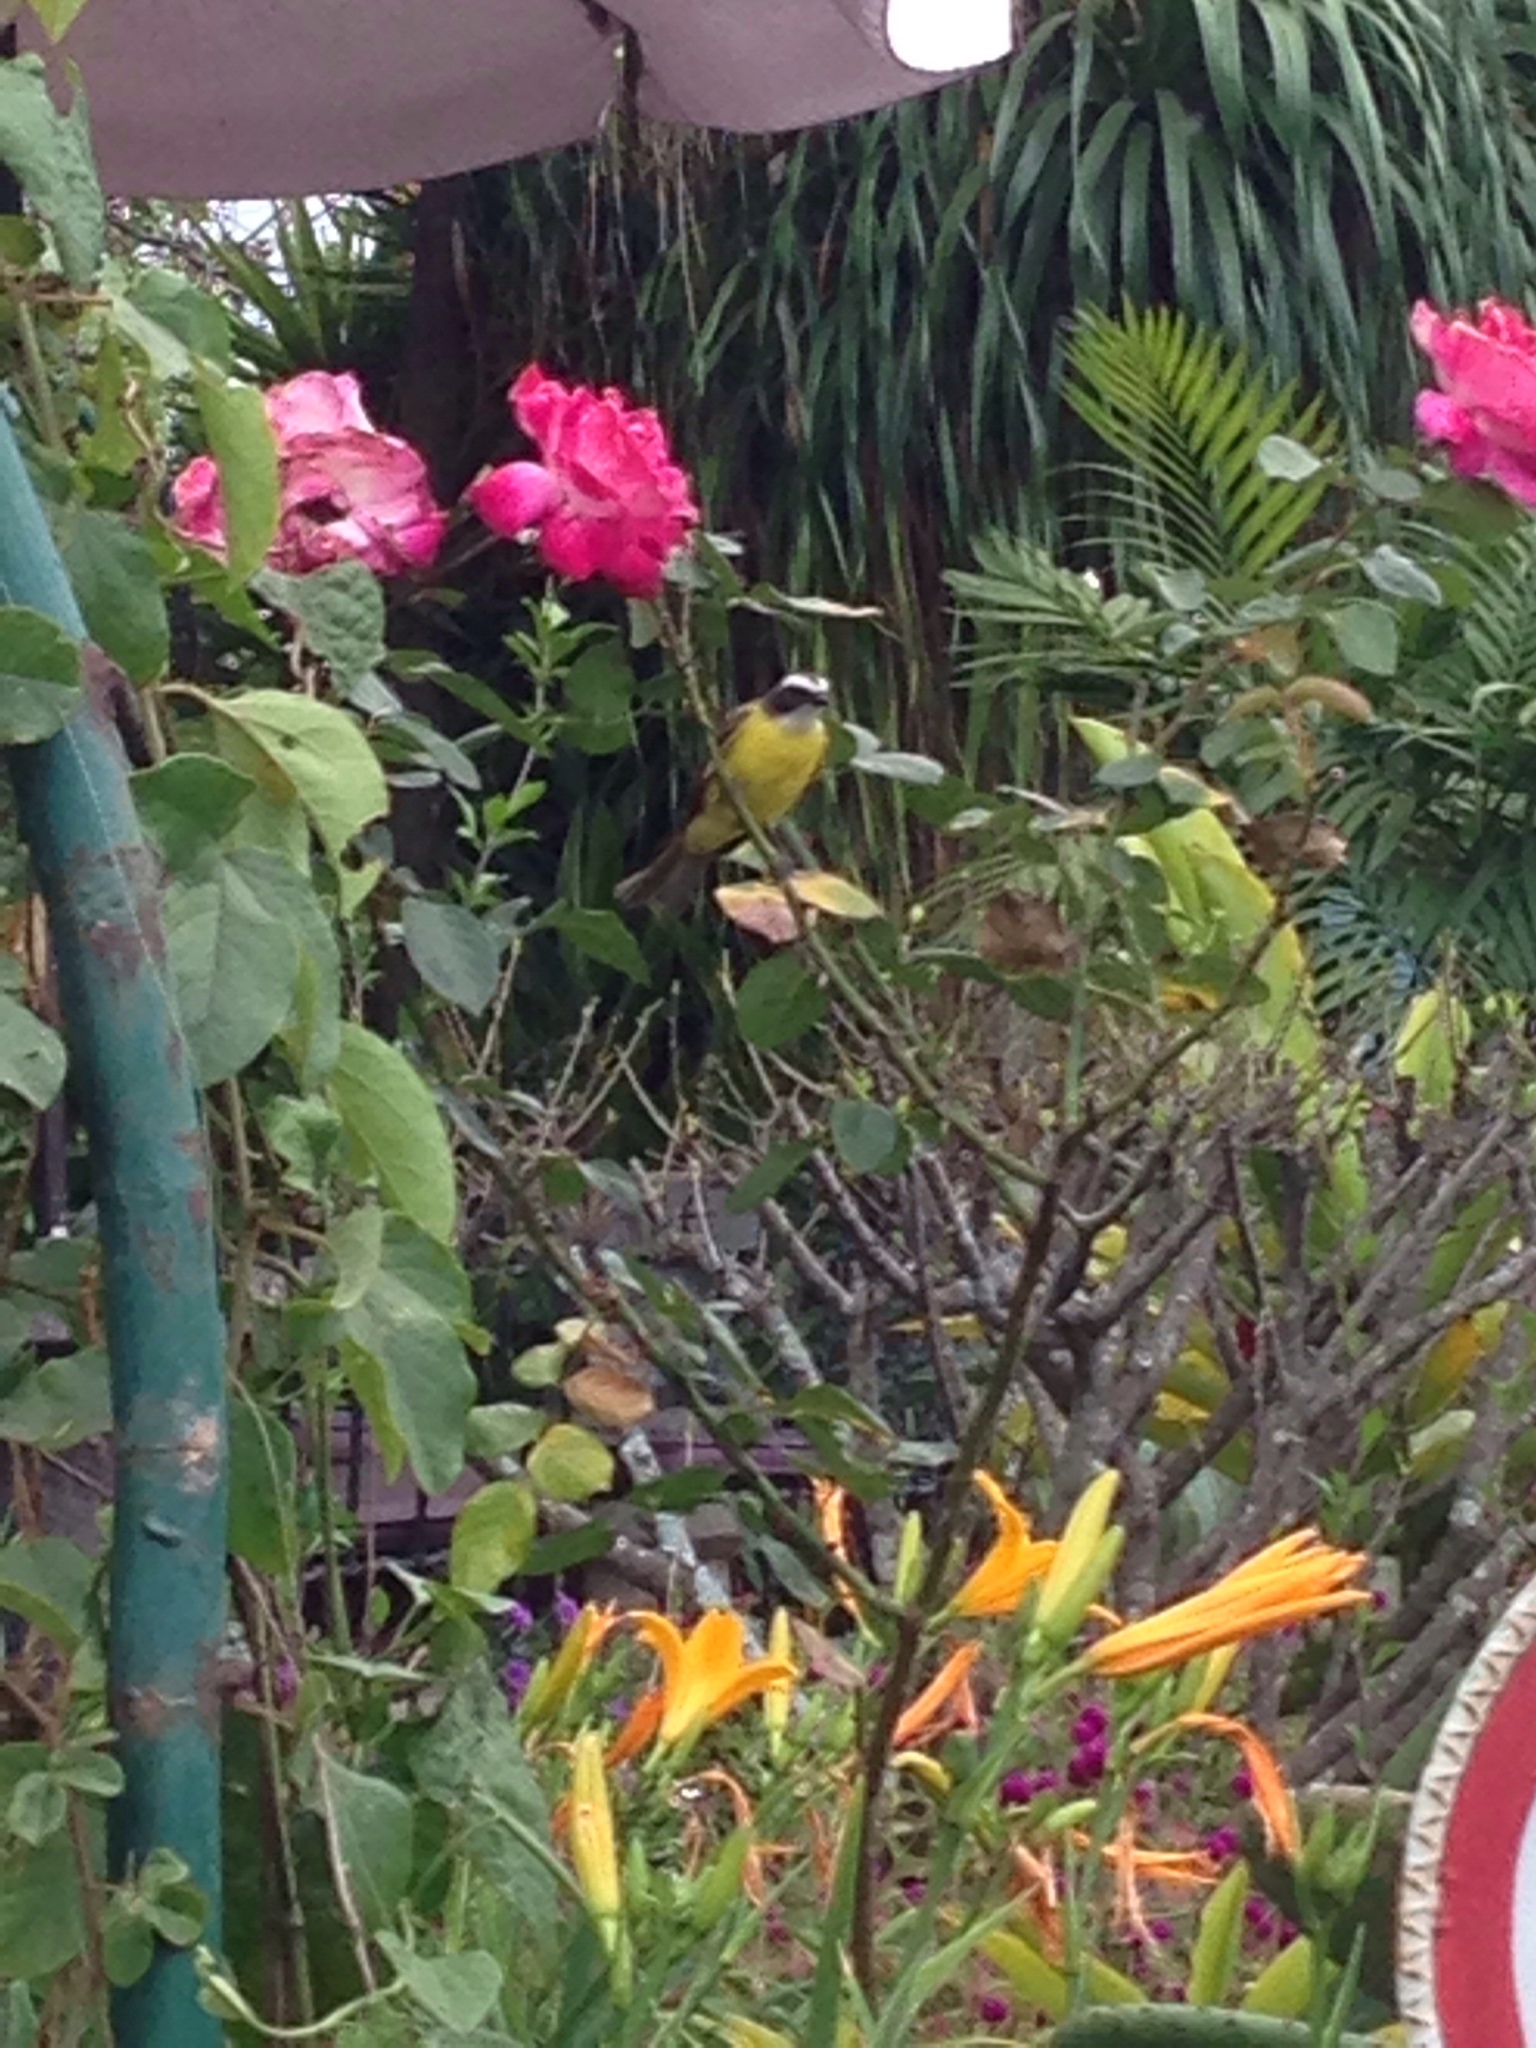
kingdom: Animalia
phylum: Chordata
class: Aves
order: Passeriformes
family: Tyrannidae
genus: Myiozetetes
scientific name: Myiozetetes similis
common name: Social flycatcher
